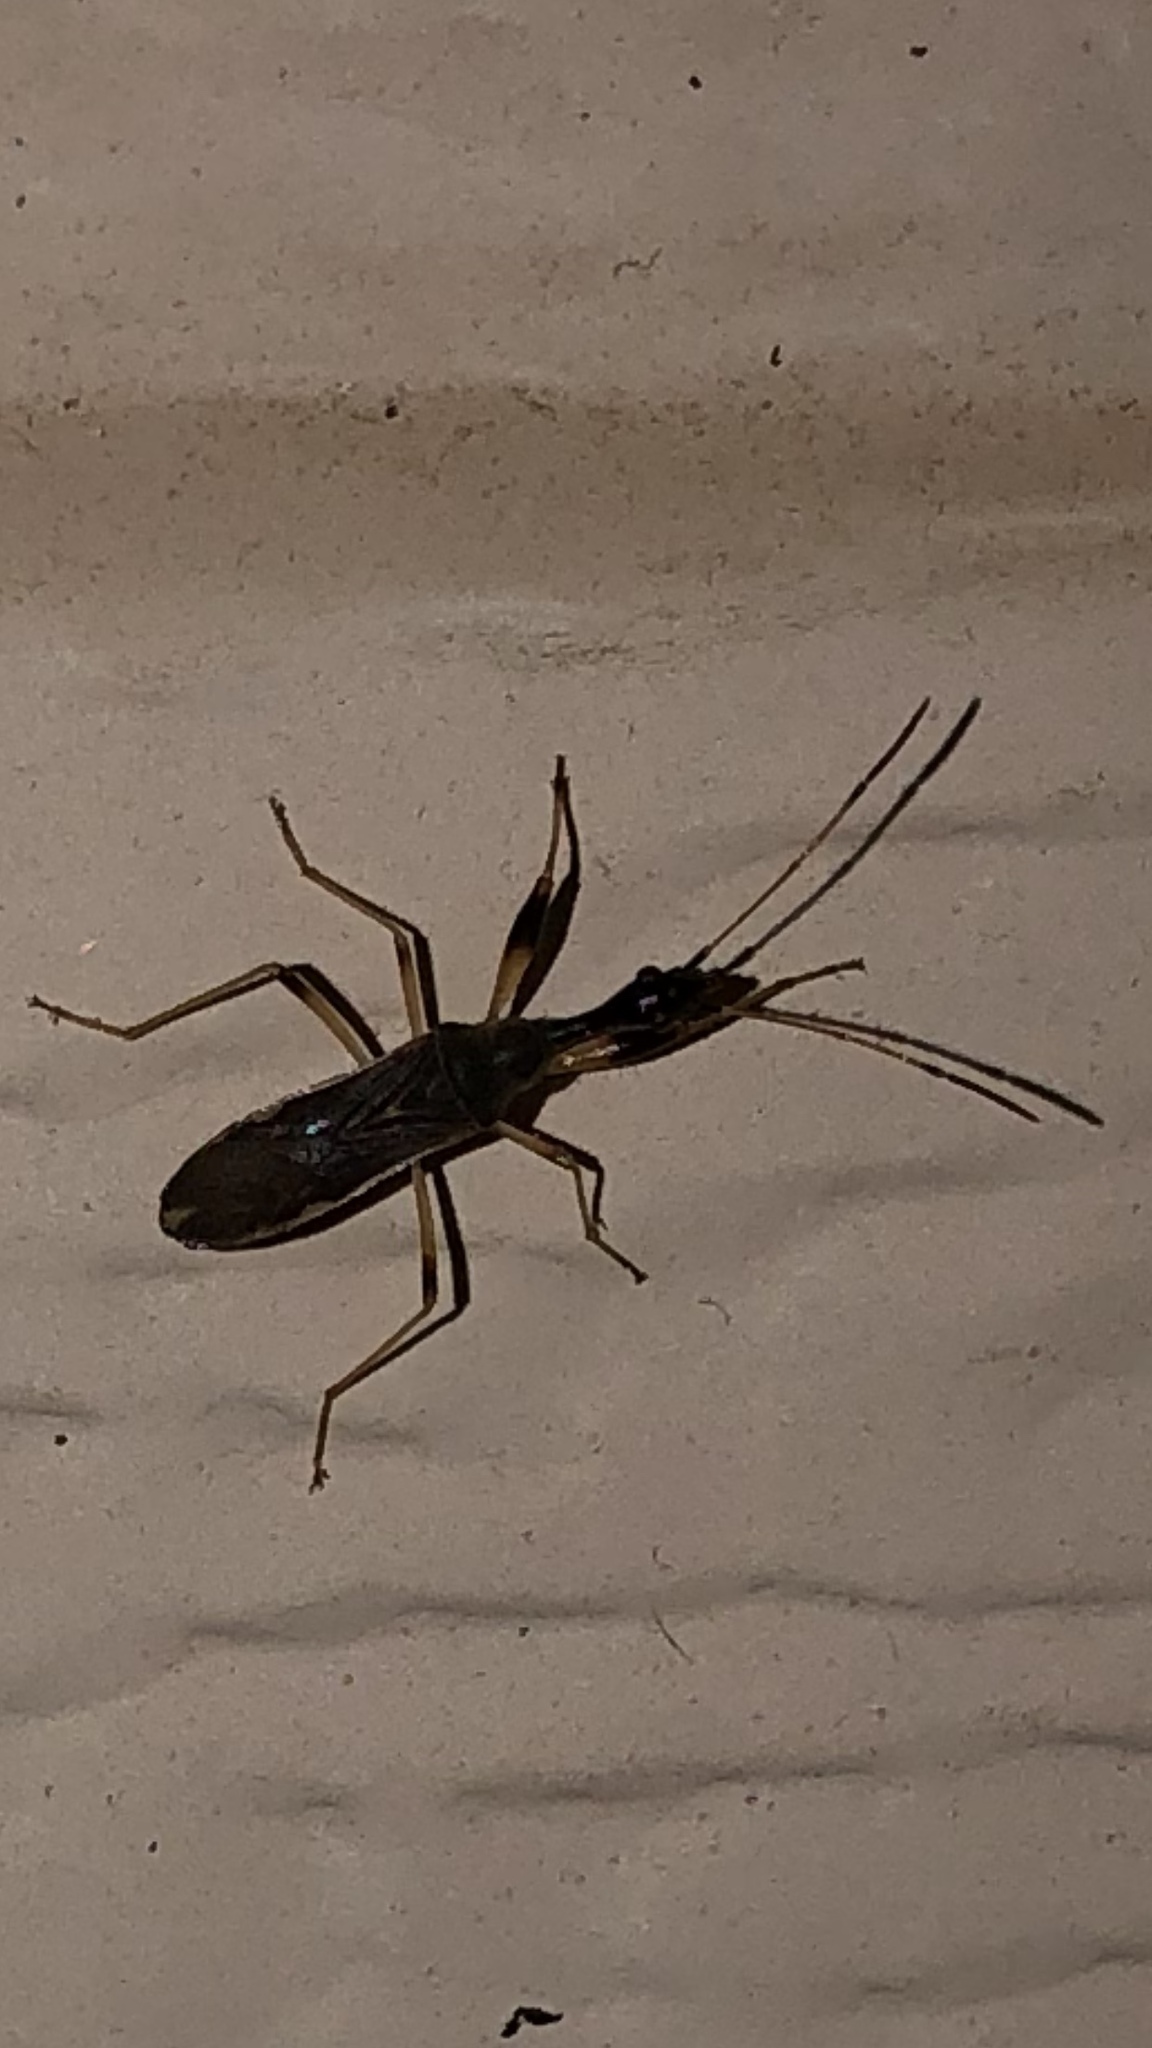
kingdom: Animalia
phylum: Arthropoda
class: Insecta
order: Hemiptera
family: Rhyparochromidae
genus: Myodocha
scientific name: Myodocha serripes
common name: Long-necked seed bug
